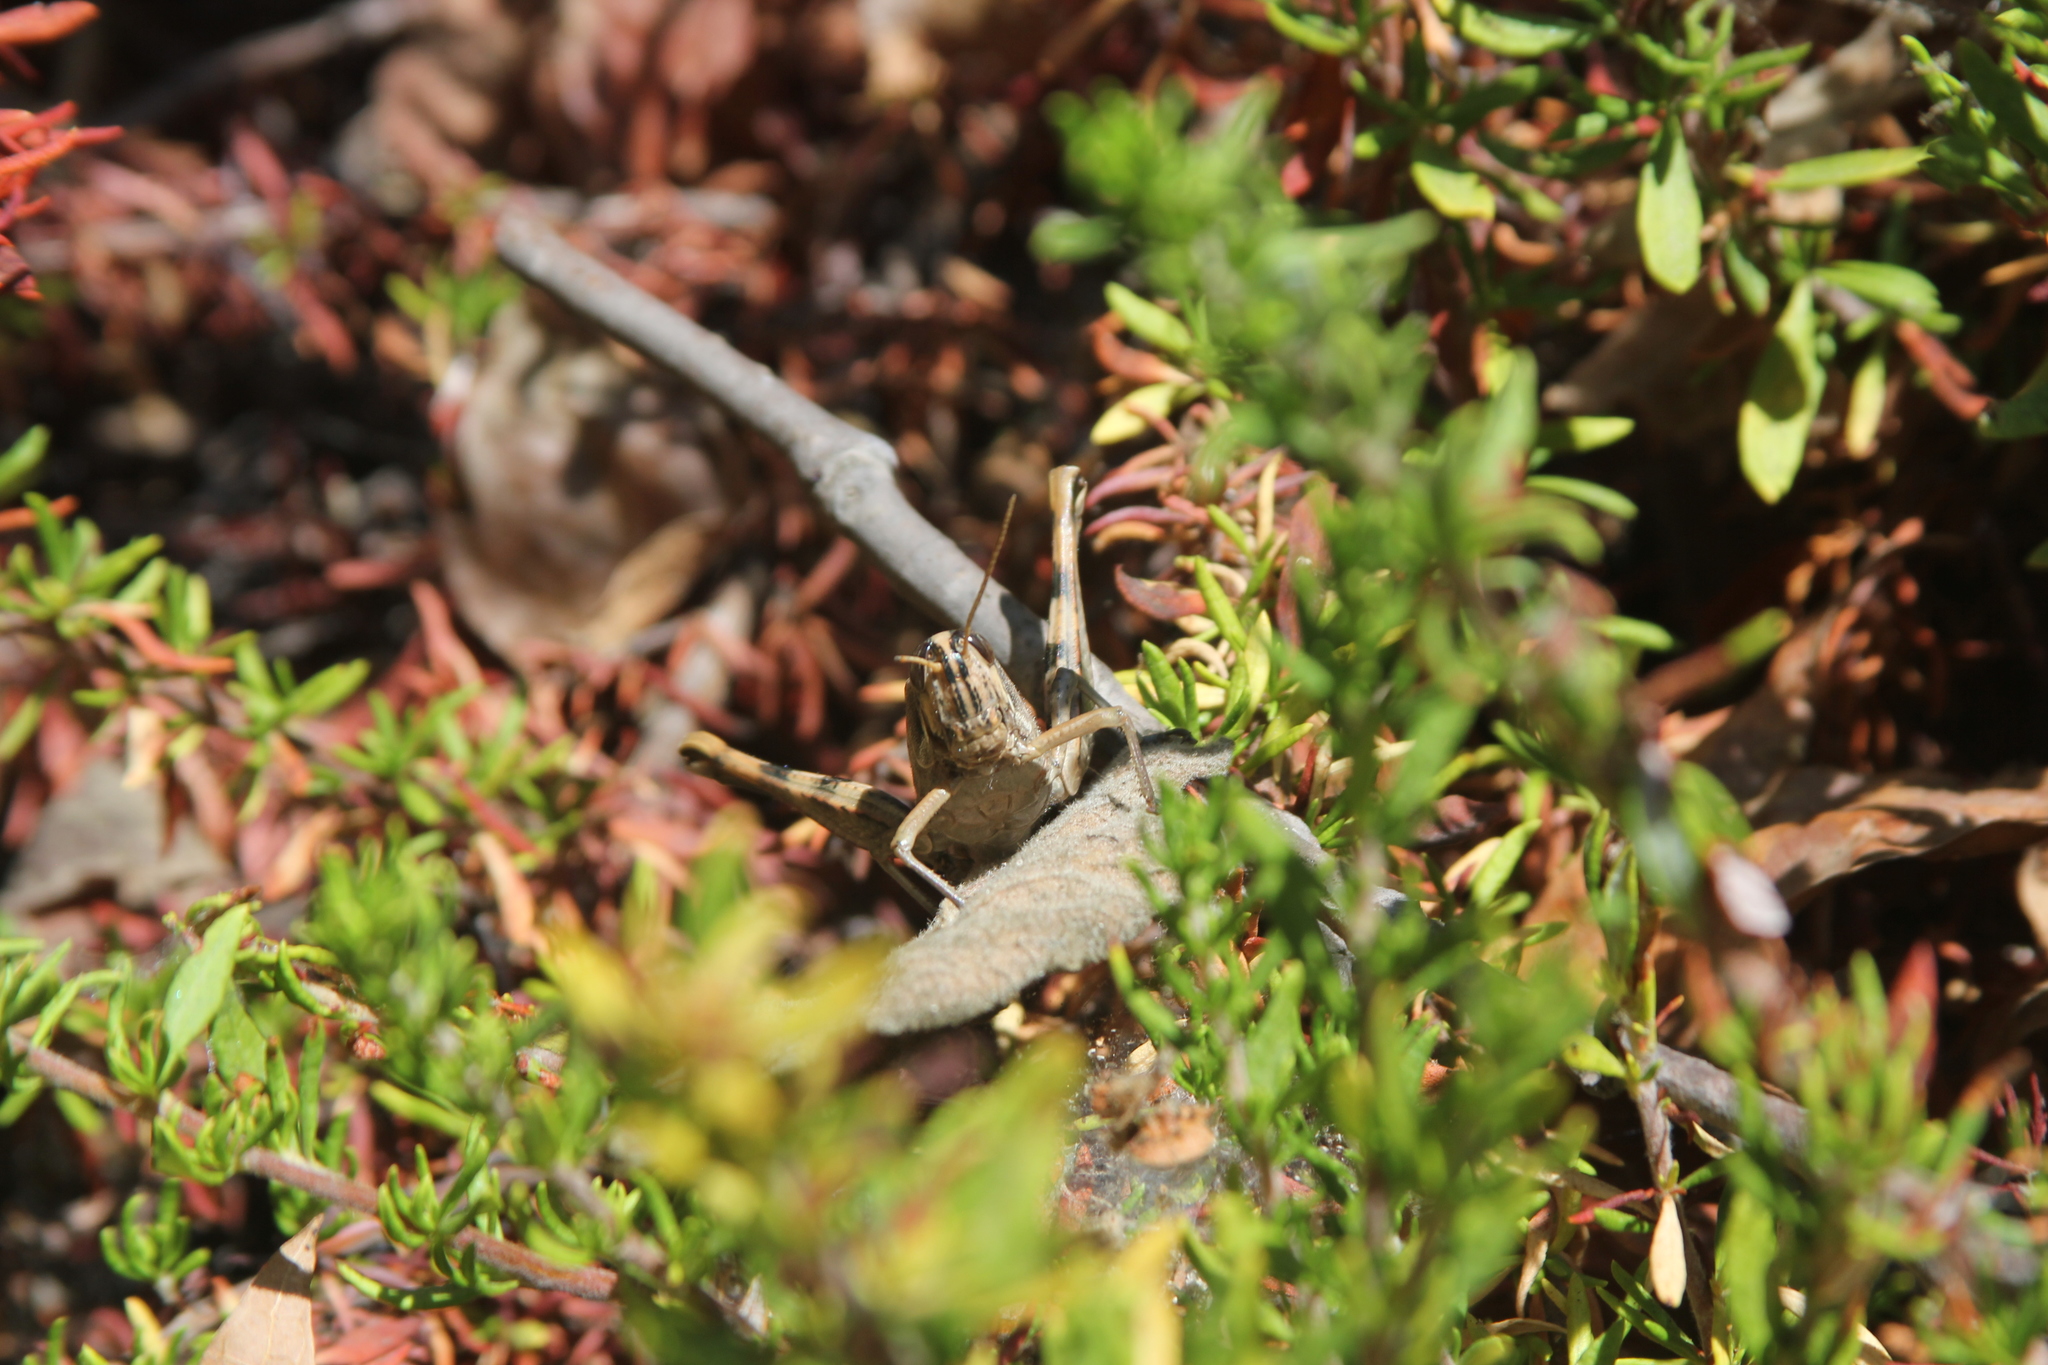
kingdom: Animalia
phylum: Arthropoda
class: Insecta
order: Orthoptera
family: Acrididae
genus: Schistocerca
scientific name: Schistocerca nitens
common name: Vagrant grasshopper
